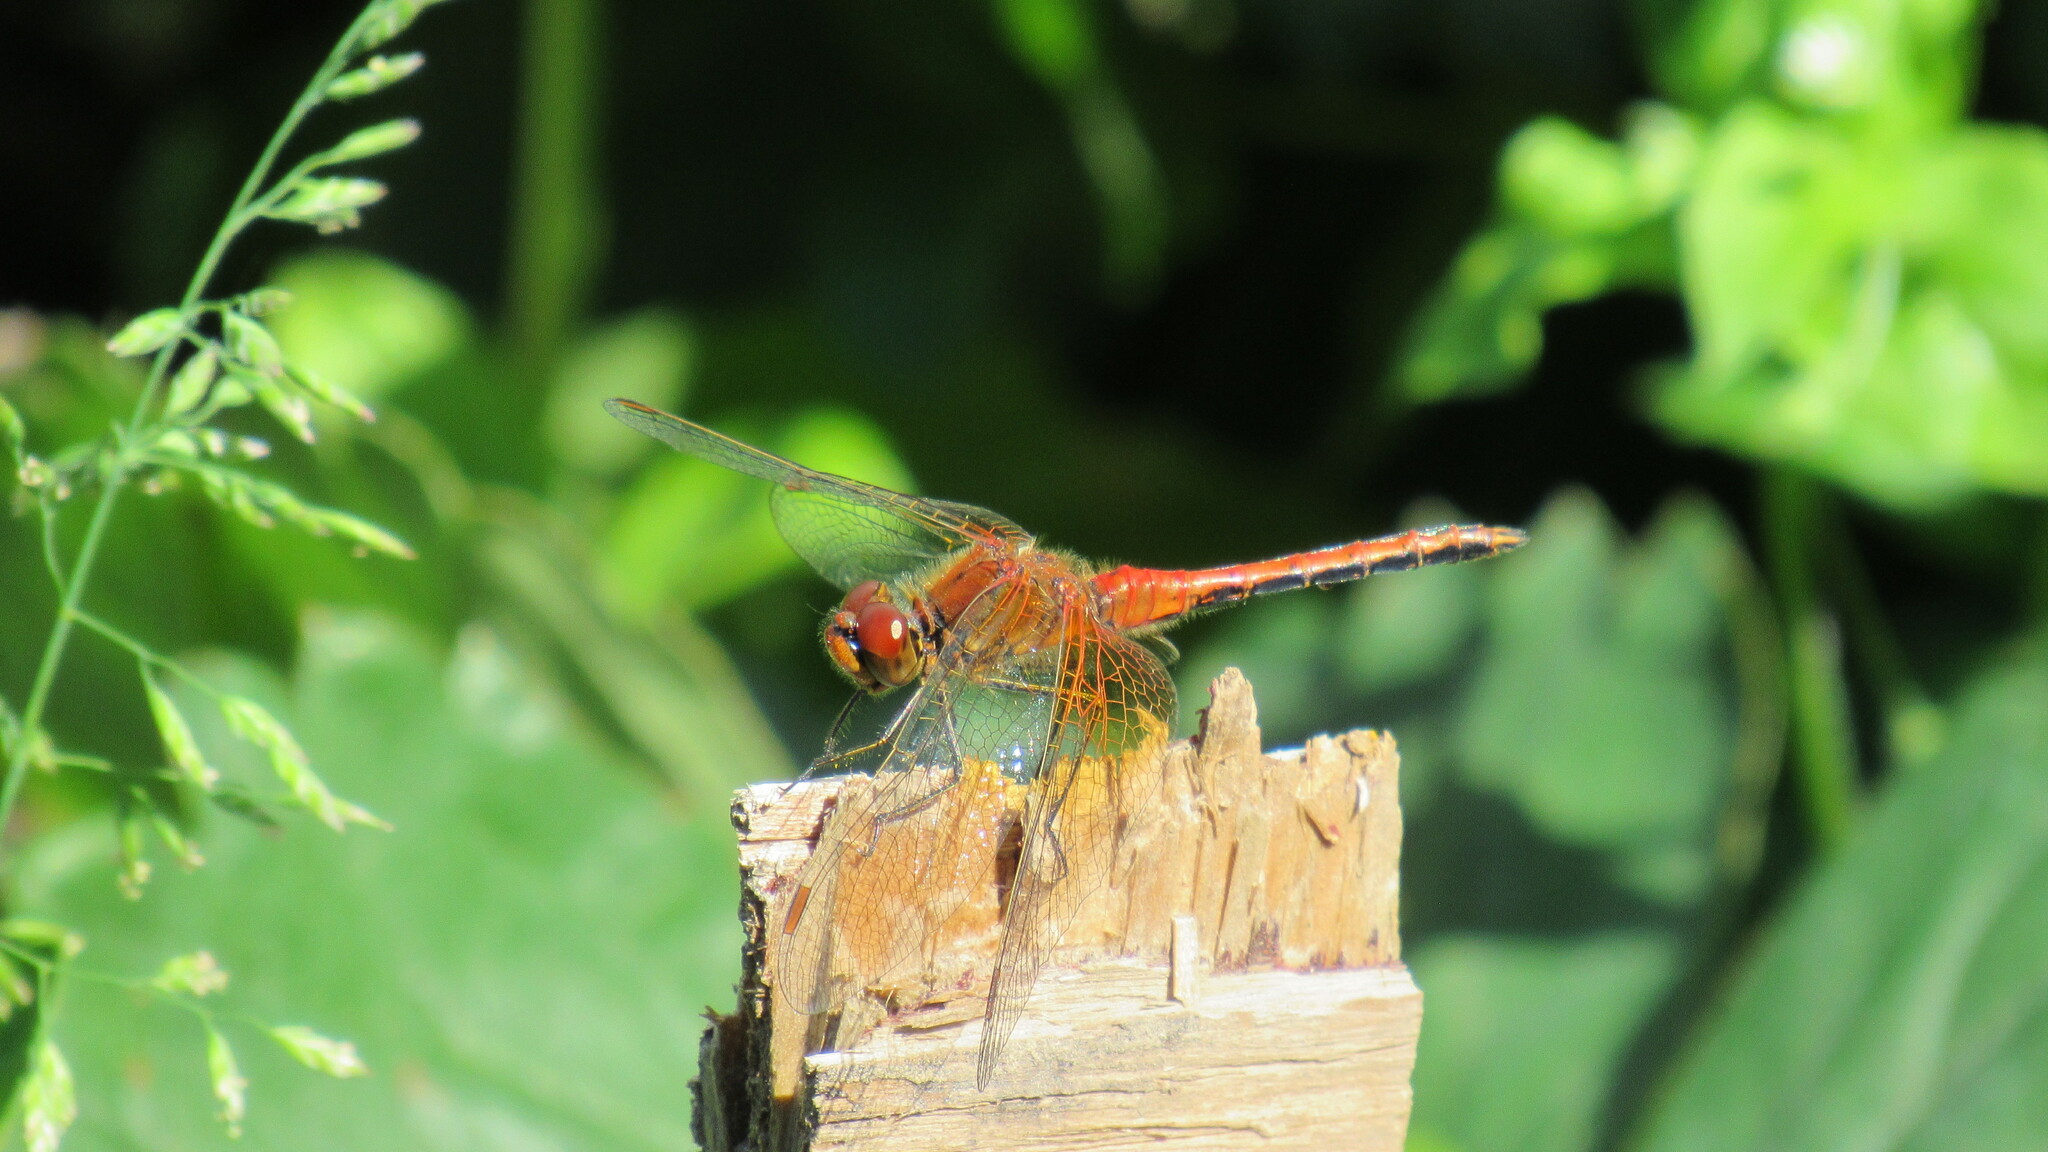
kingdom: Animalia
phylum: Arthropoda
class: Insecta
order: Odonata
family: Libellulidae
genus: Sympetrum
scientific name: Sympetrum flaveolum
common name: Yellow-winged darter
